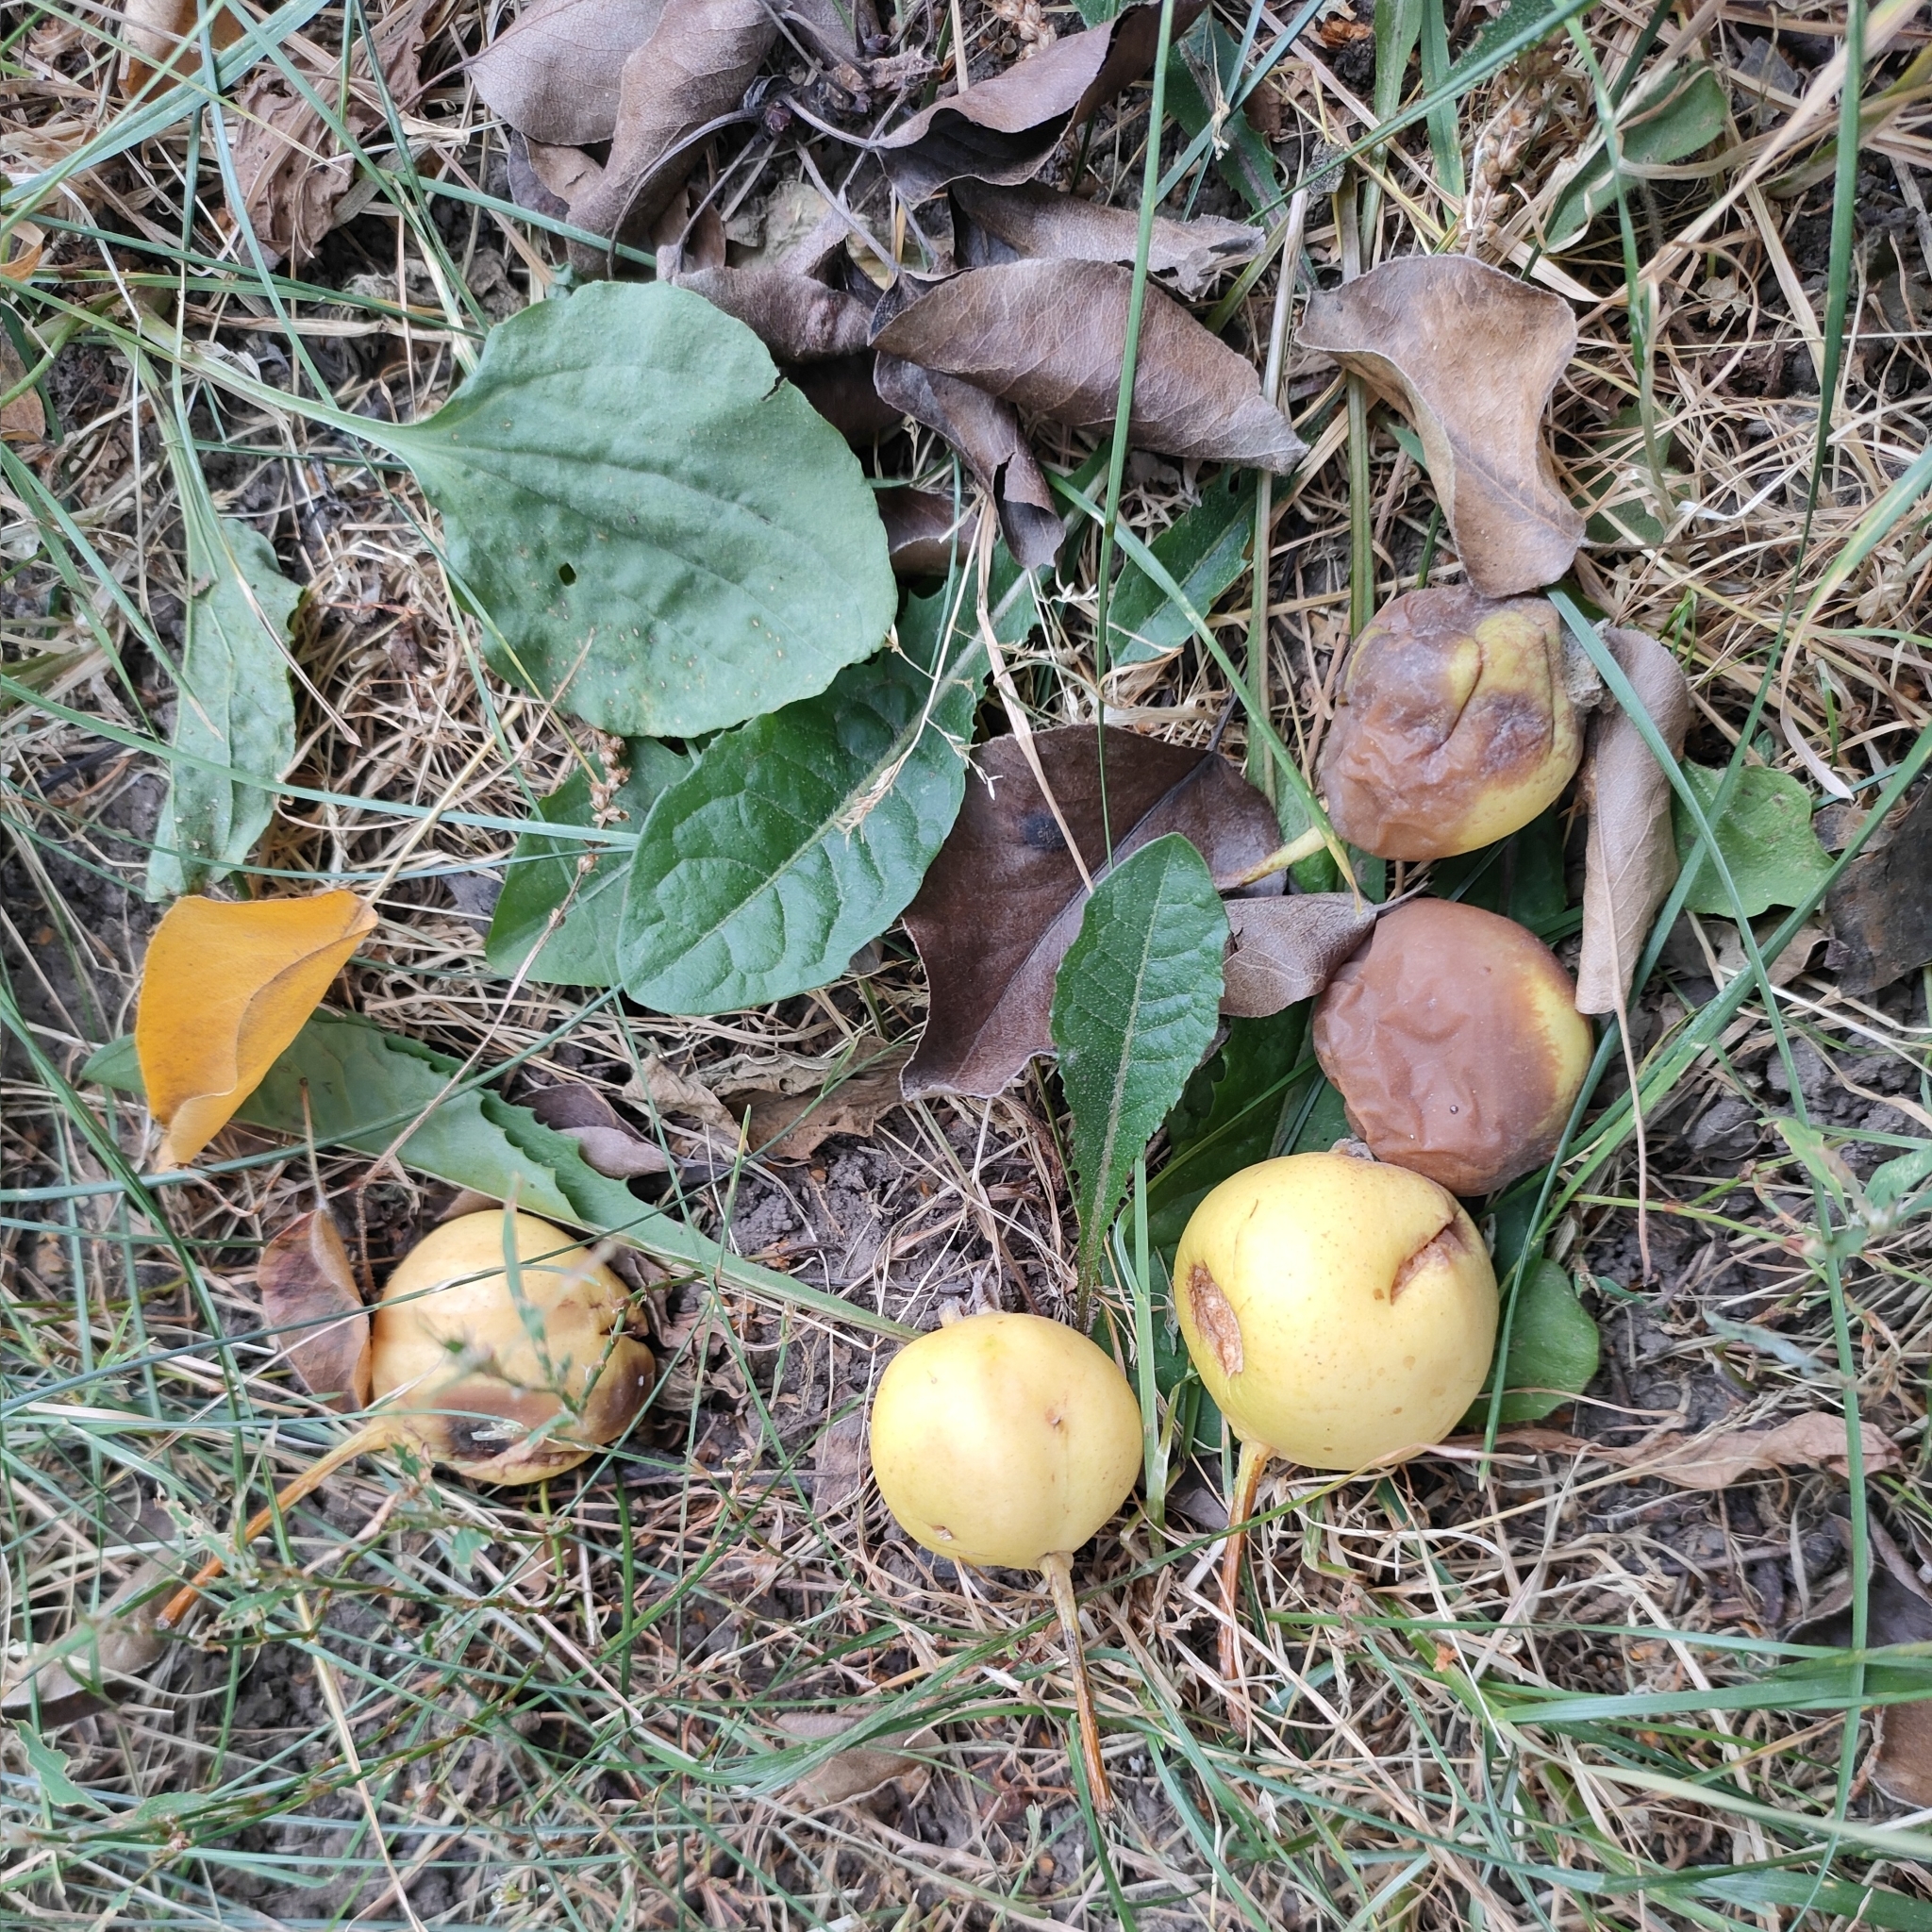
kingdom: Plantae
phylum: Tracheophyta
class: Magnoliopsida
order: Rosales
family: Rosaceae
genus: Pyrus
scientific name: Pyrus communis
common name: Pear
